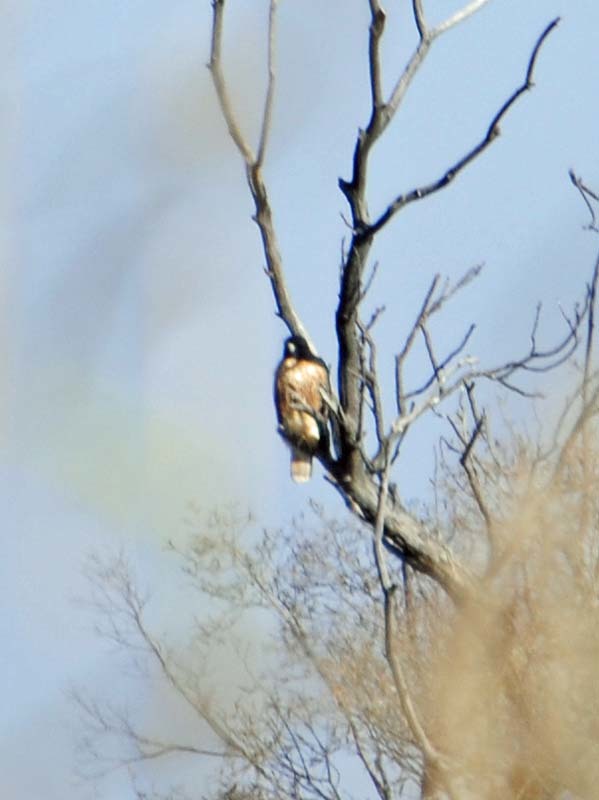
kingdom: Animalia
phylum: Chordata
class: Aves
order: Accipitriformes
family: Accipitridae
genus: Buteo
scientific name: Buteo jamaicensis
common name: Red-tailed hawk
